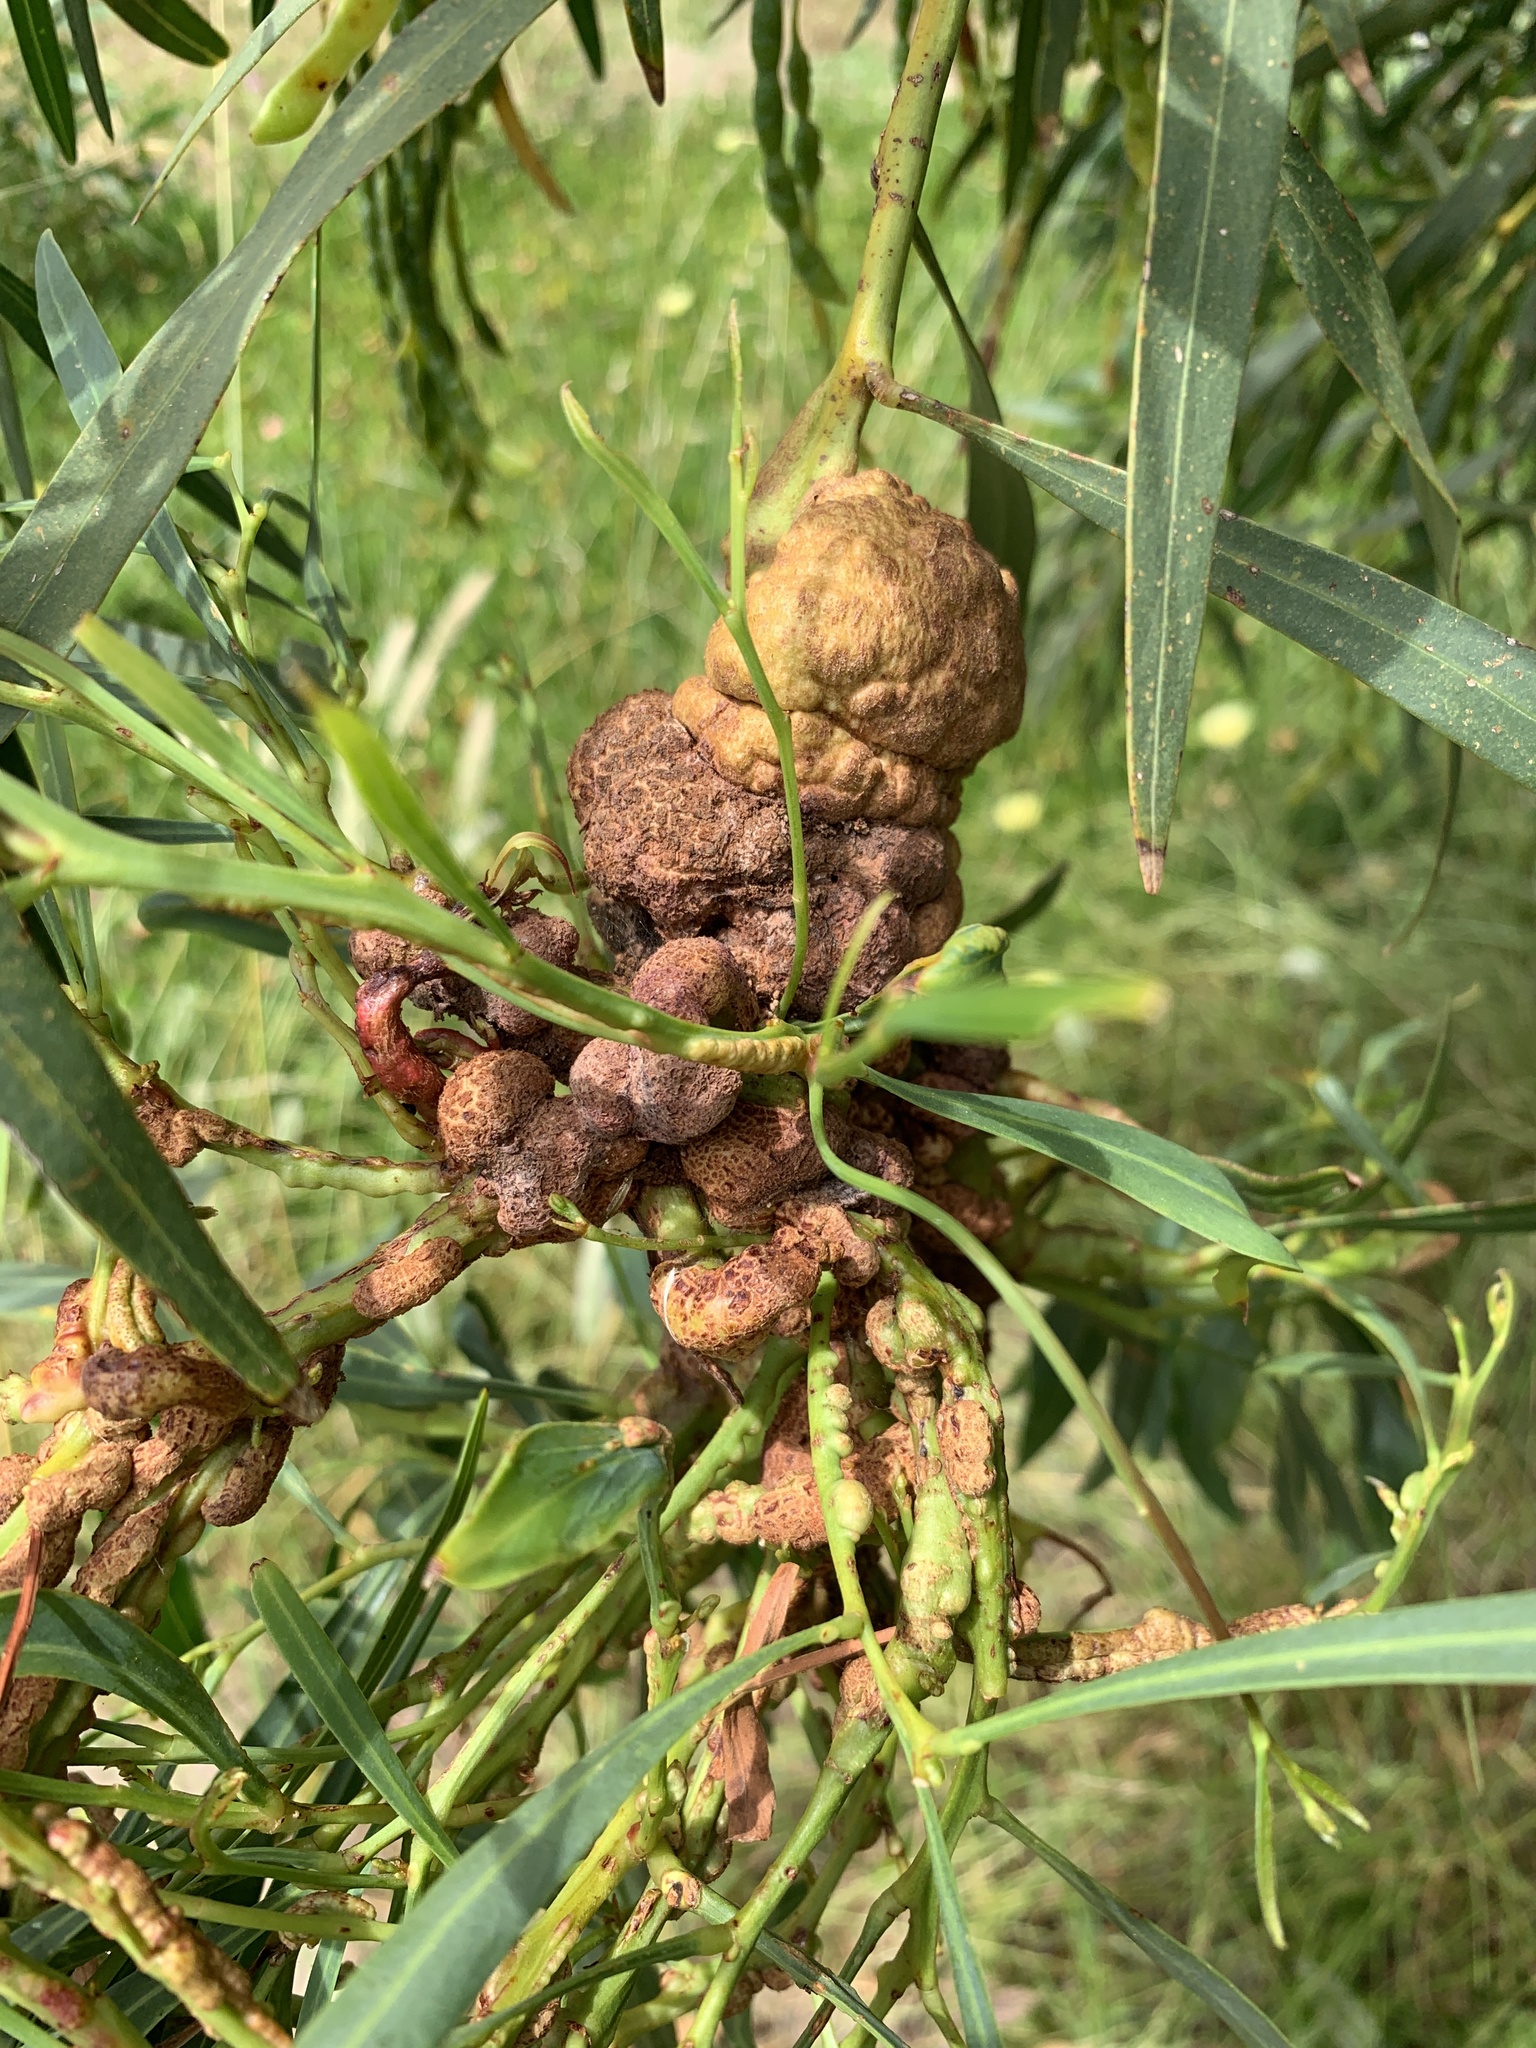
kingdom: Plantae
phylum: Tracheophyta
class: Magnoliopsida
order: Fabales
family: Fabaceae
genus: Acacia
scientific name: Acacia saligna
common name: Orange wattle
